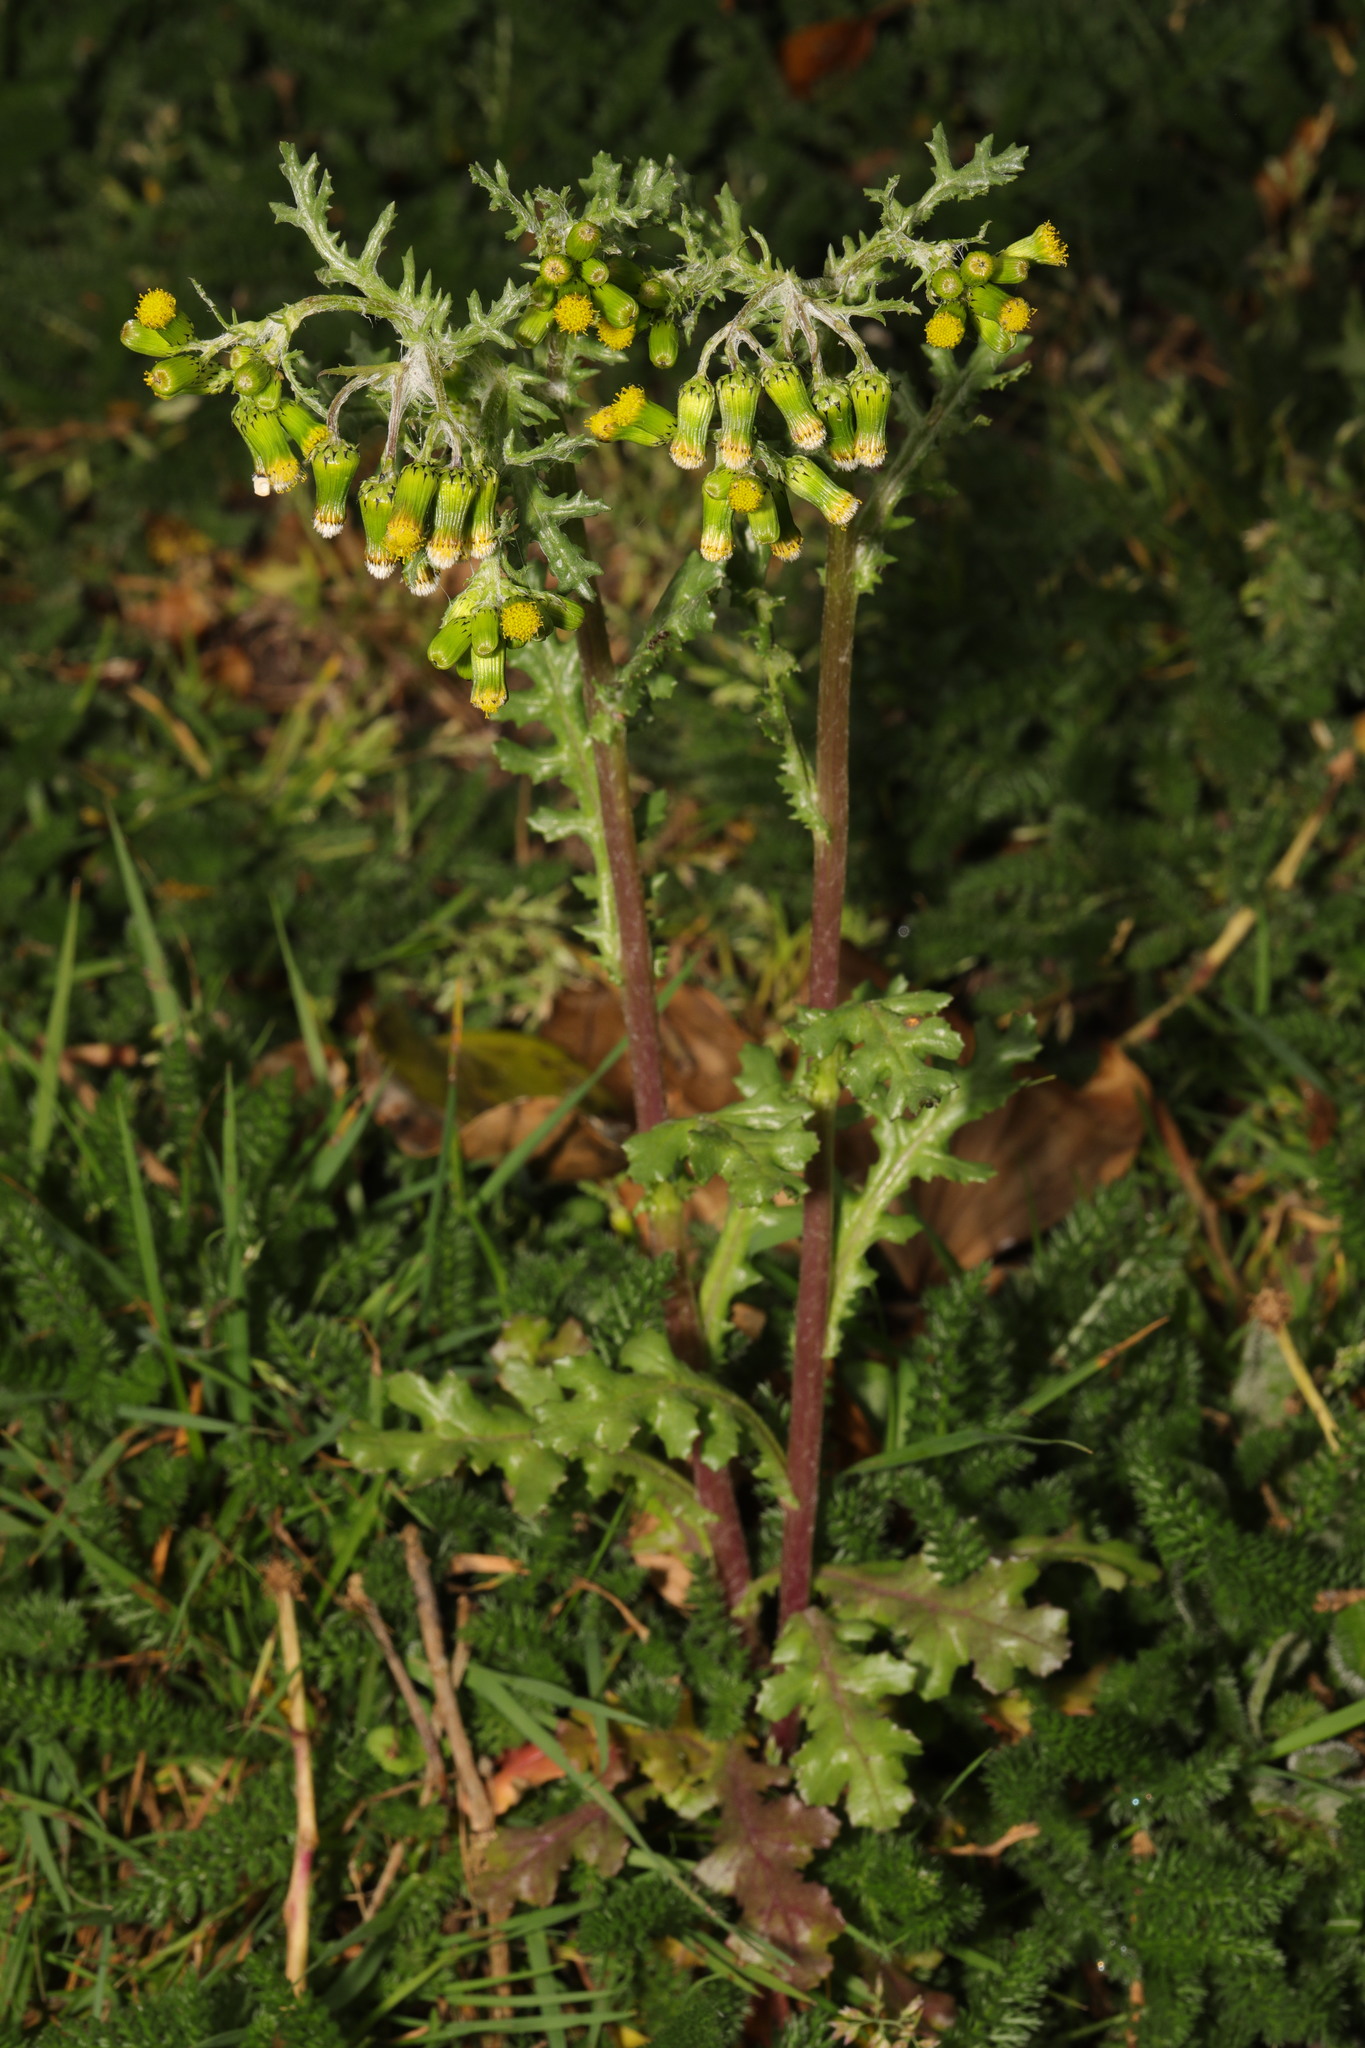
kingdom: Plantae
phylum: Tracheophyta
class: Magnoliopsida
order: Asterales
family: Asteraceae
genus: Senecio
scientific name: Senecio vulgaris
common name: Old-man-in-the-spring
